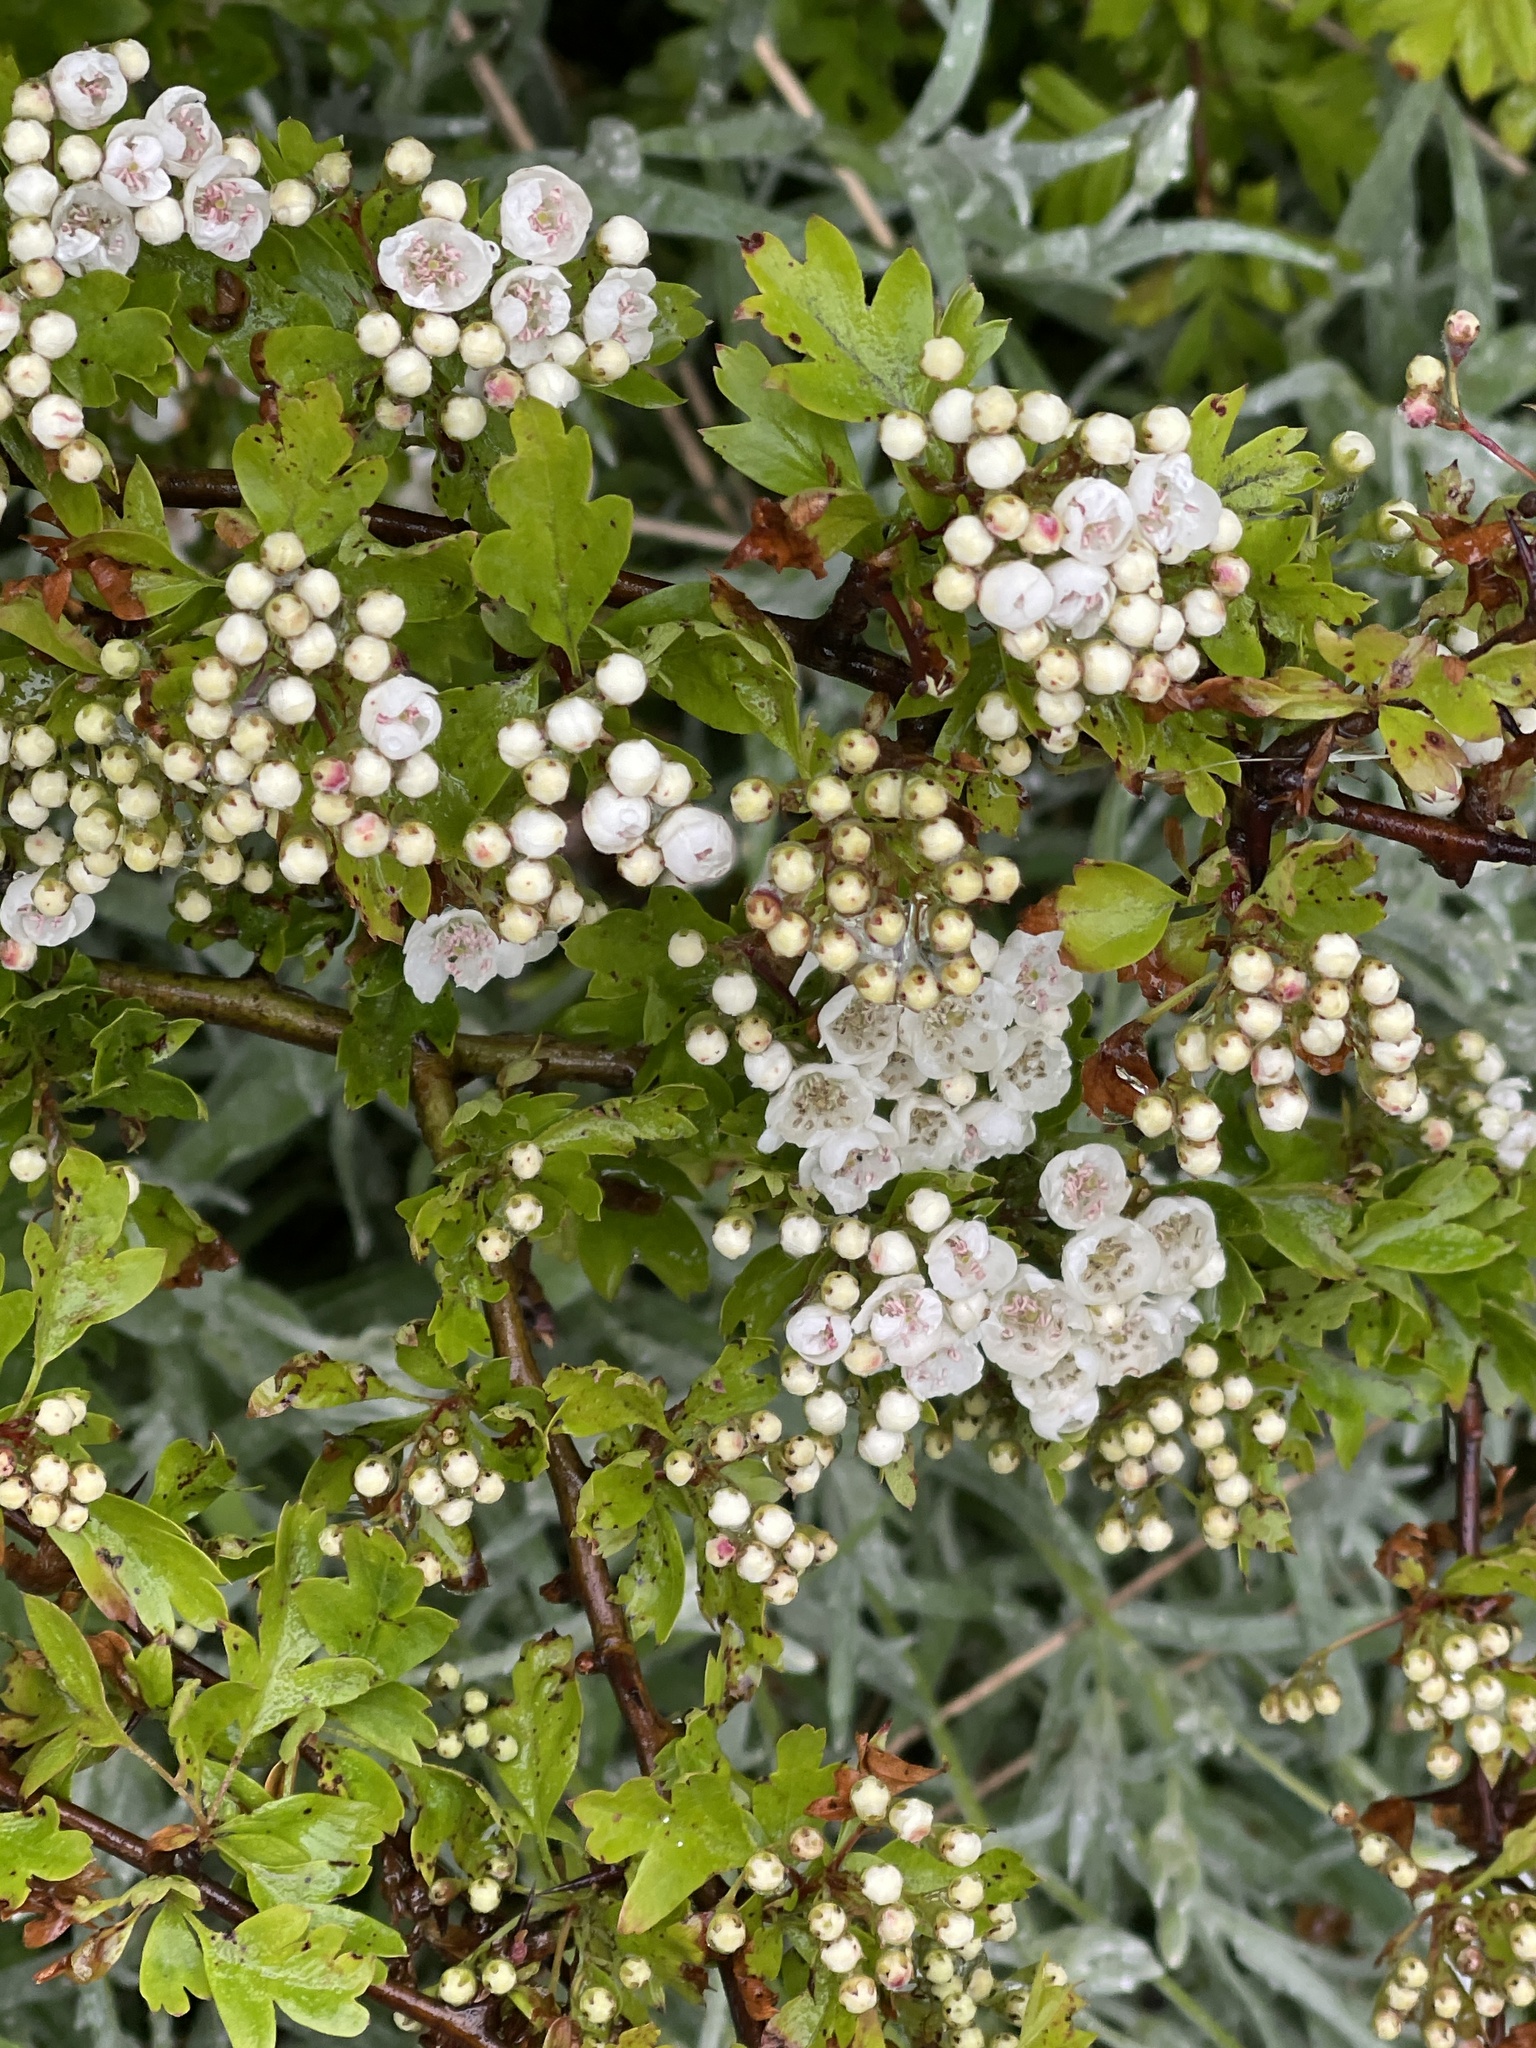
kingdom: Plantae
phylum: Tracheophyta
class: Magnoliopsida
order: Rosales
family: Rosaceae
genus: Crataegus
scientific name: Crataegus monogyna
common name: Hawthorn
